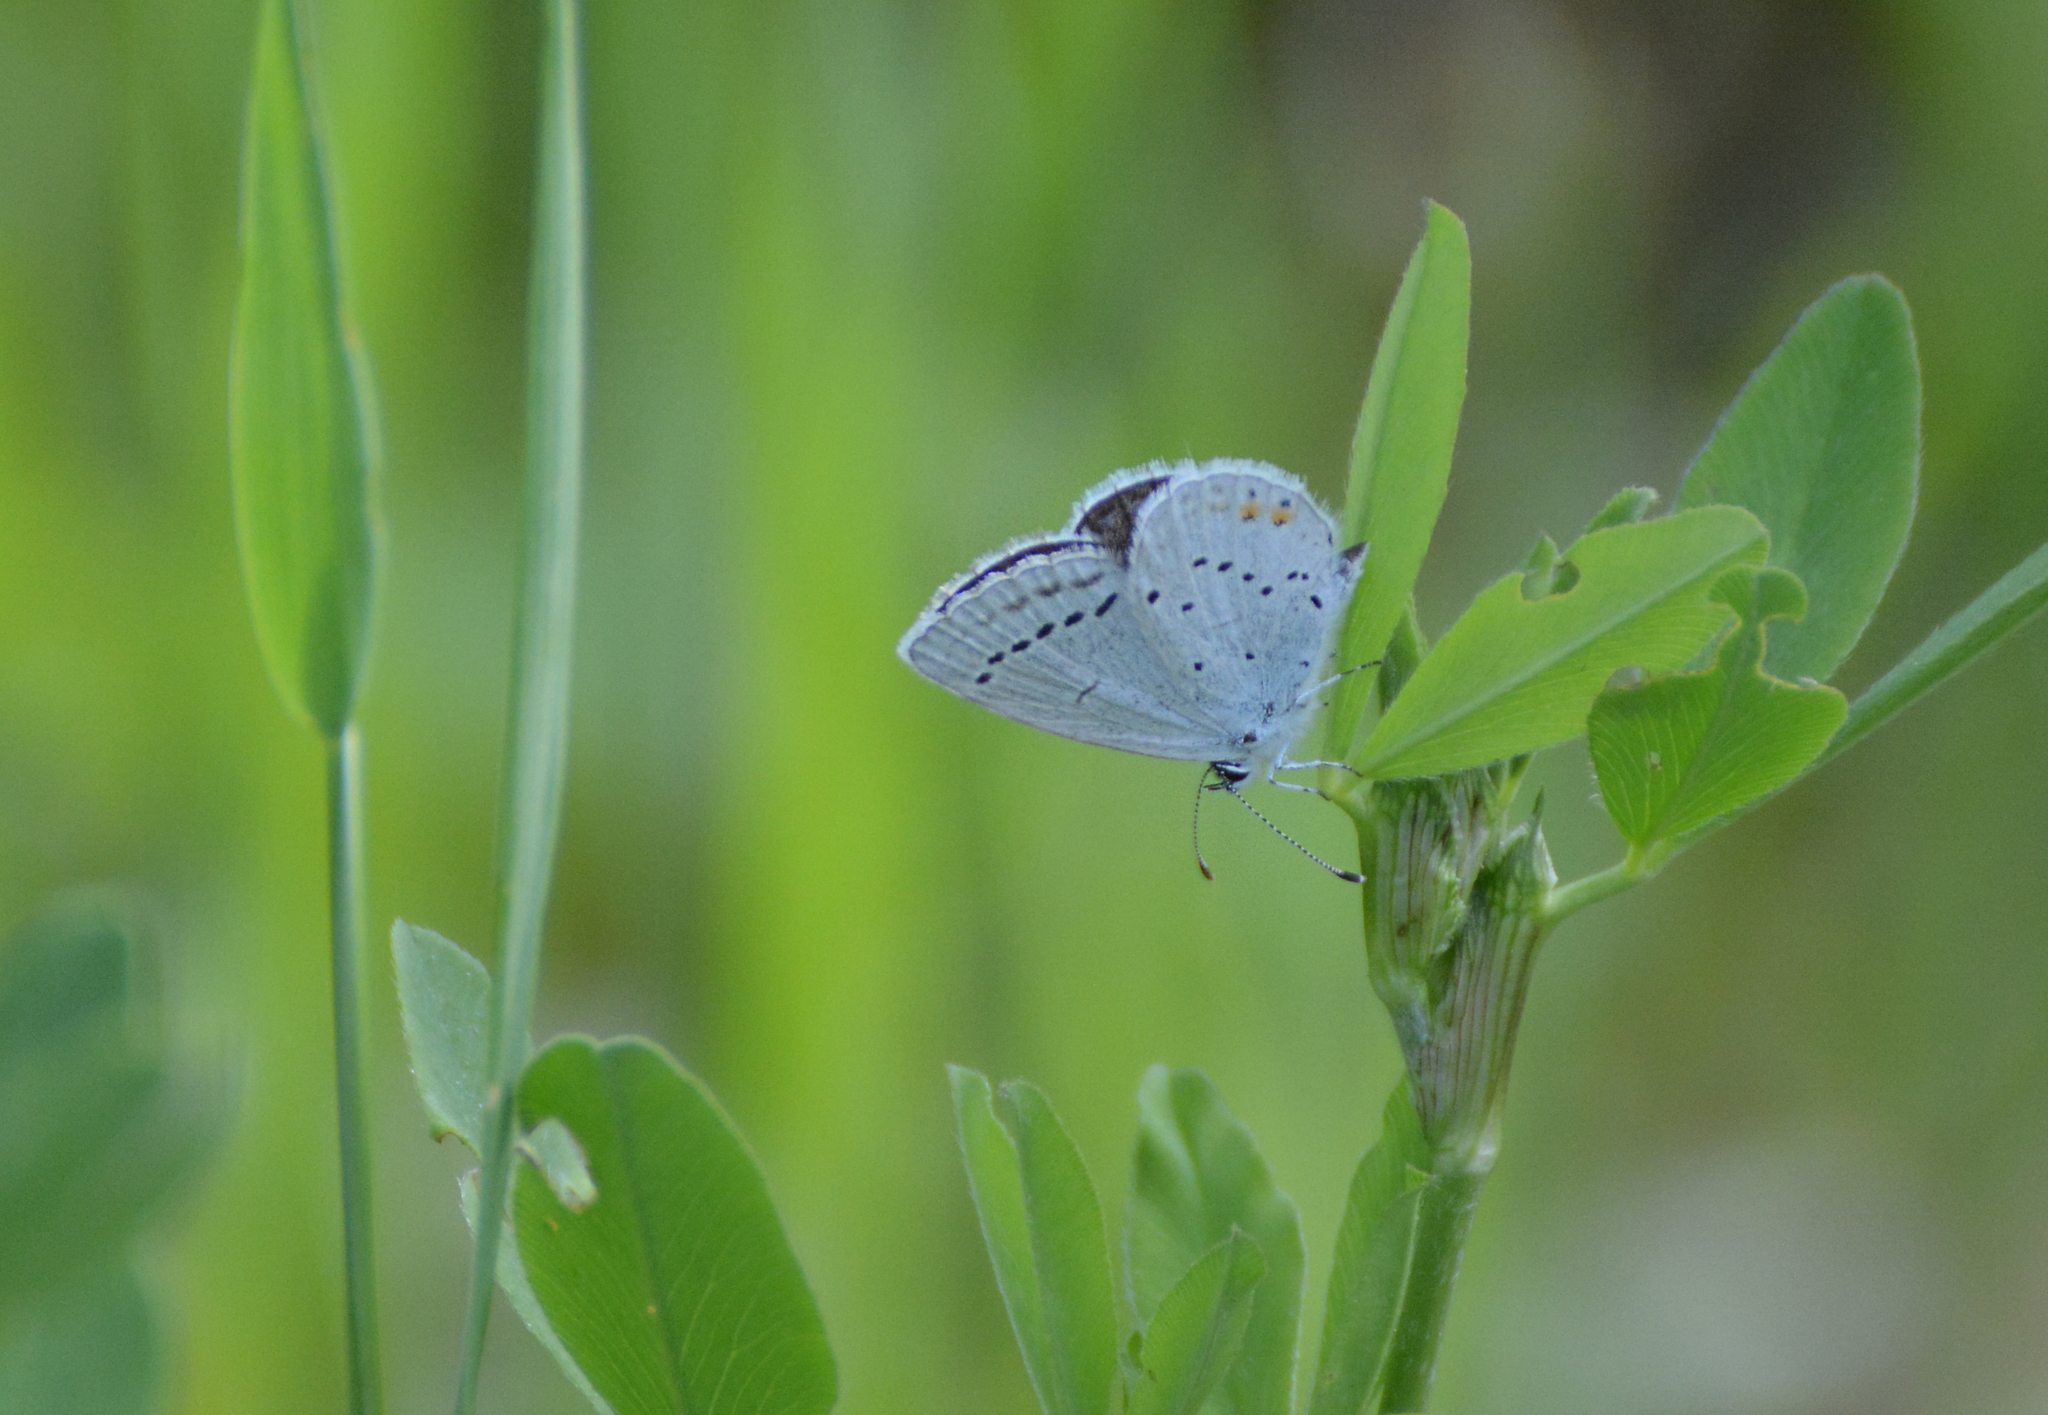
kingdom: Animalia
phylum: Arthropoda
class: Insecta
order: Lepidoptera
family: Lycaenidae
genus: Elkalyce
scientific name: Elkalyce argiades
